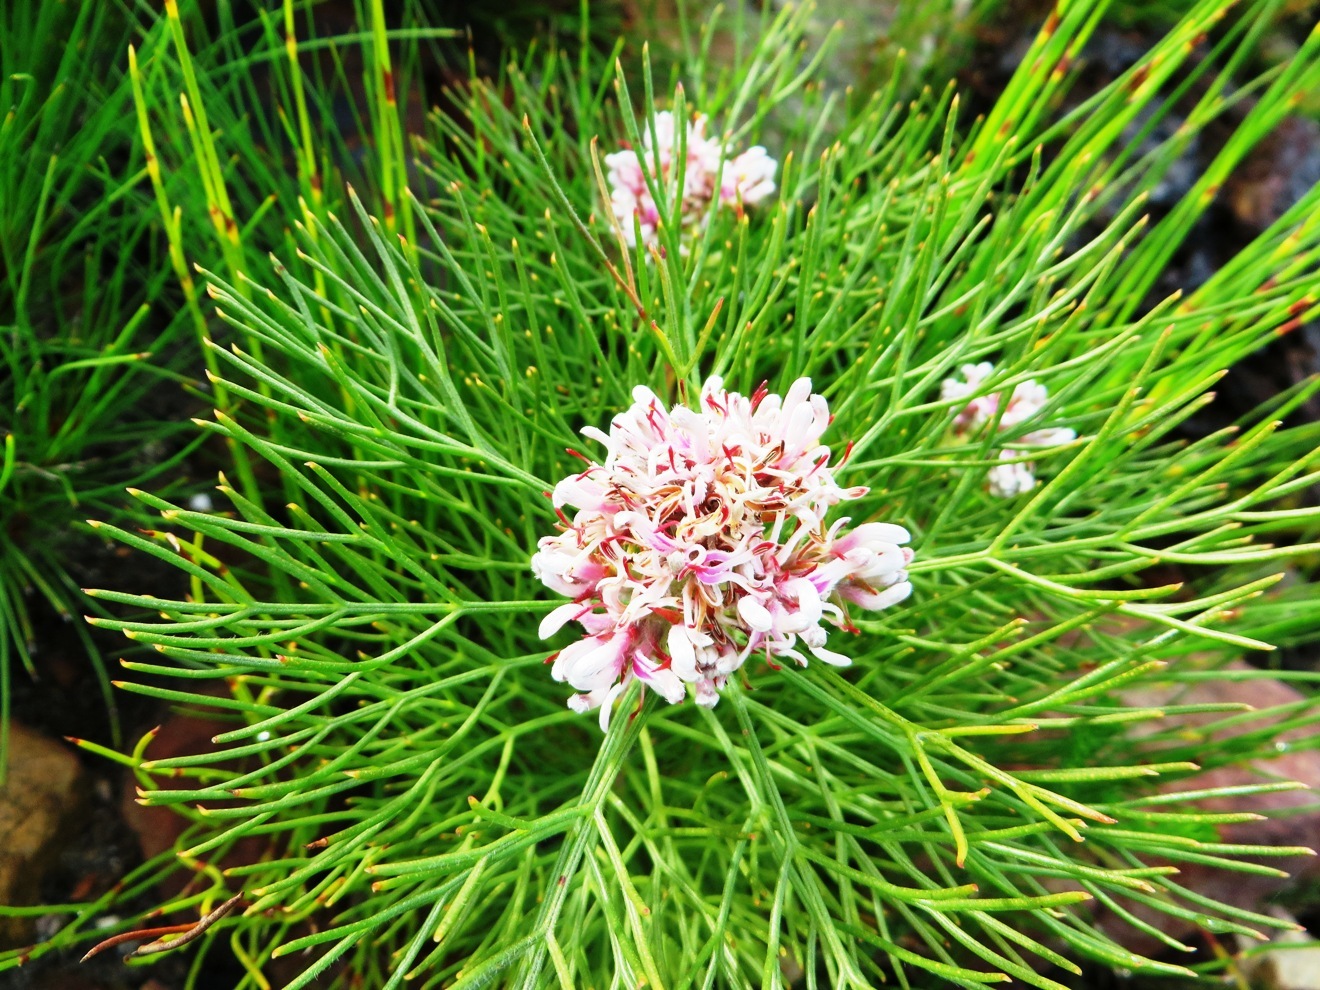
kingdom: Plantae
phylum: Tracheophyta
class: Magnoliopsida
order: Proteales
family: Proteaceae
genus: Serruria
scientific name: Serruria ascendens
